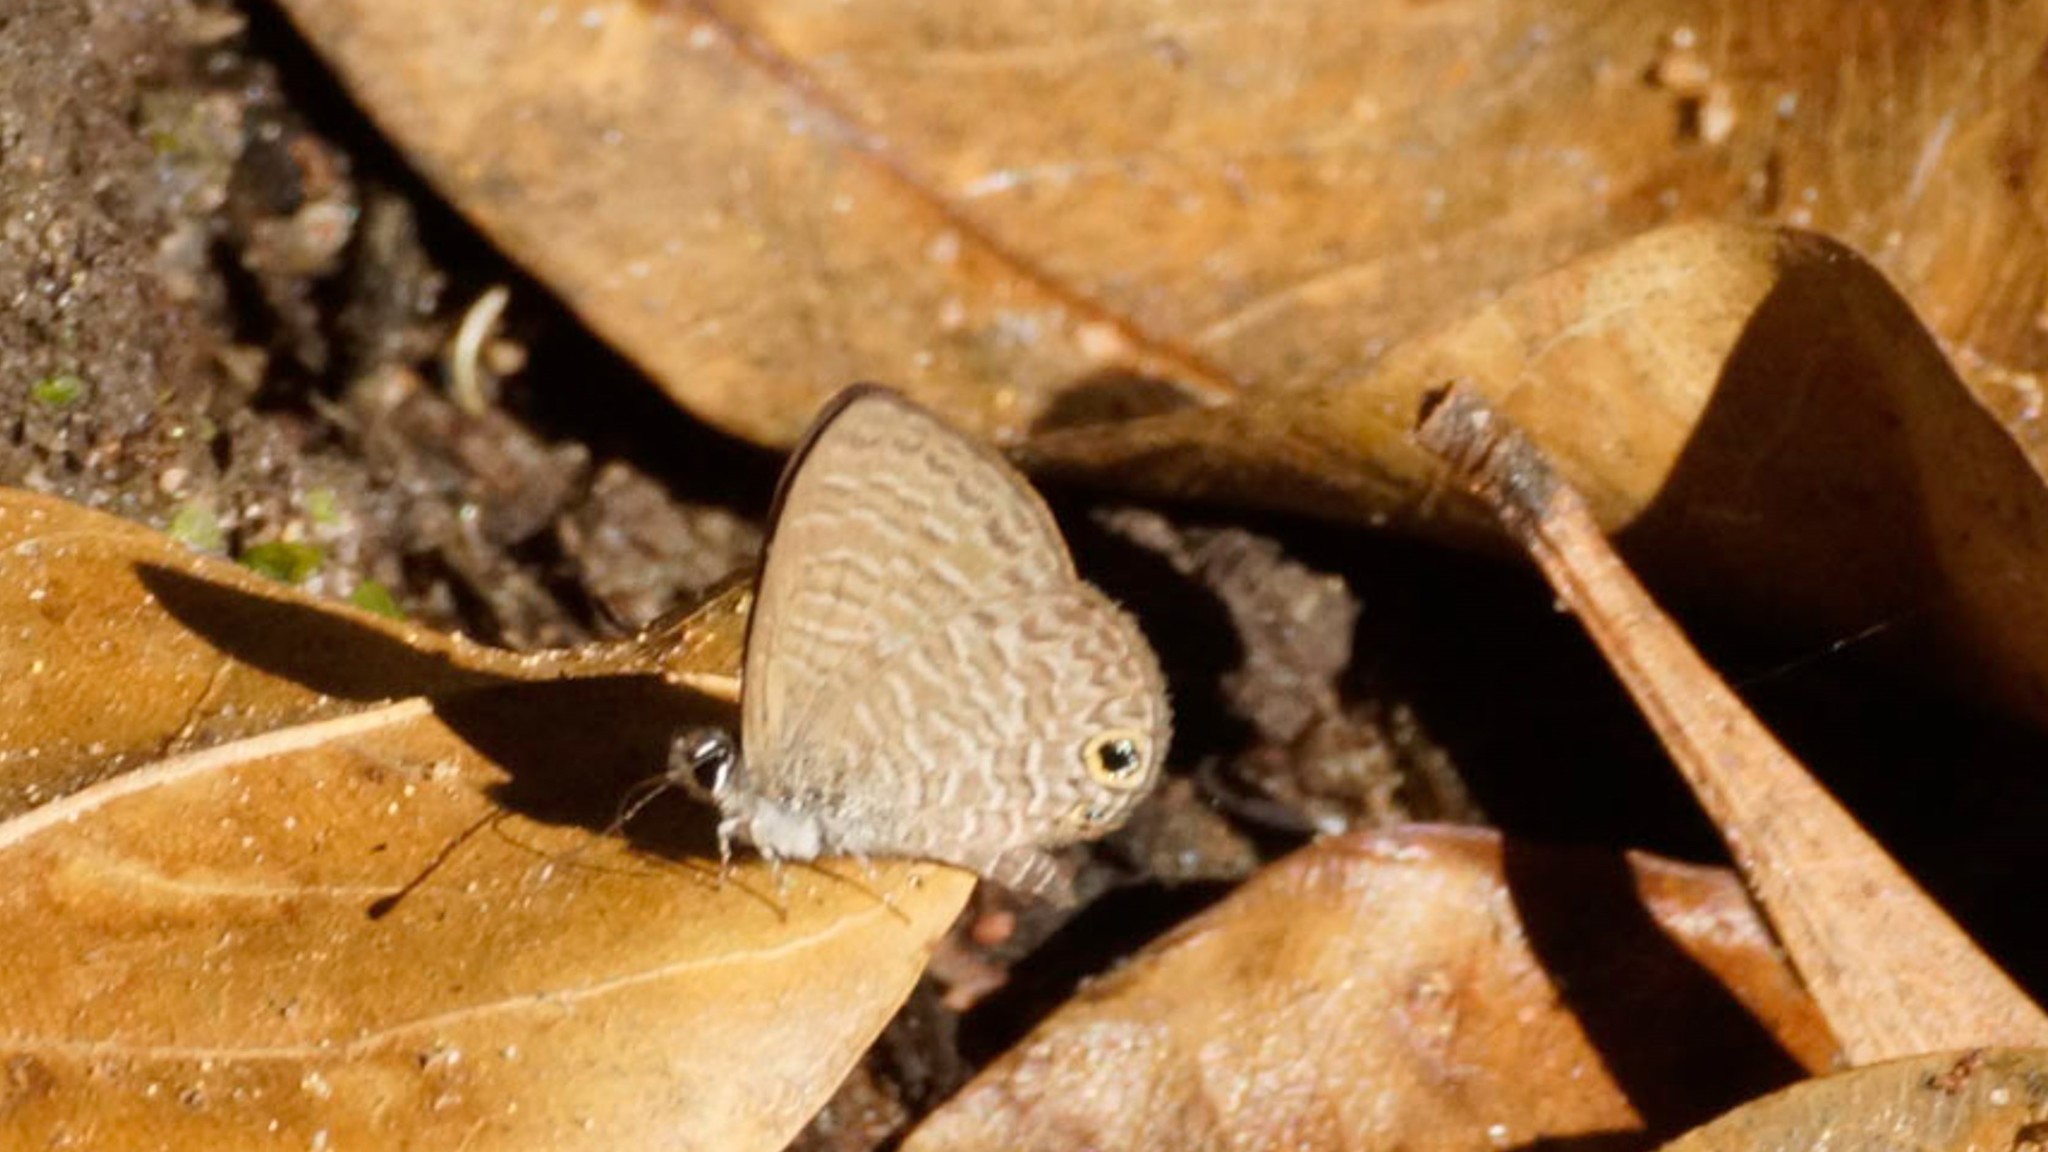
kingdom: Animalia
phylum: Arthropoda
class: Insecta
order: Lepidoptera
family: Lycaenidae
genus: Prosotas
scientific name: Prosotas dubiosa
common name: Tailless lineblue
